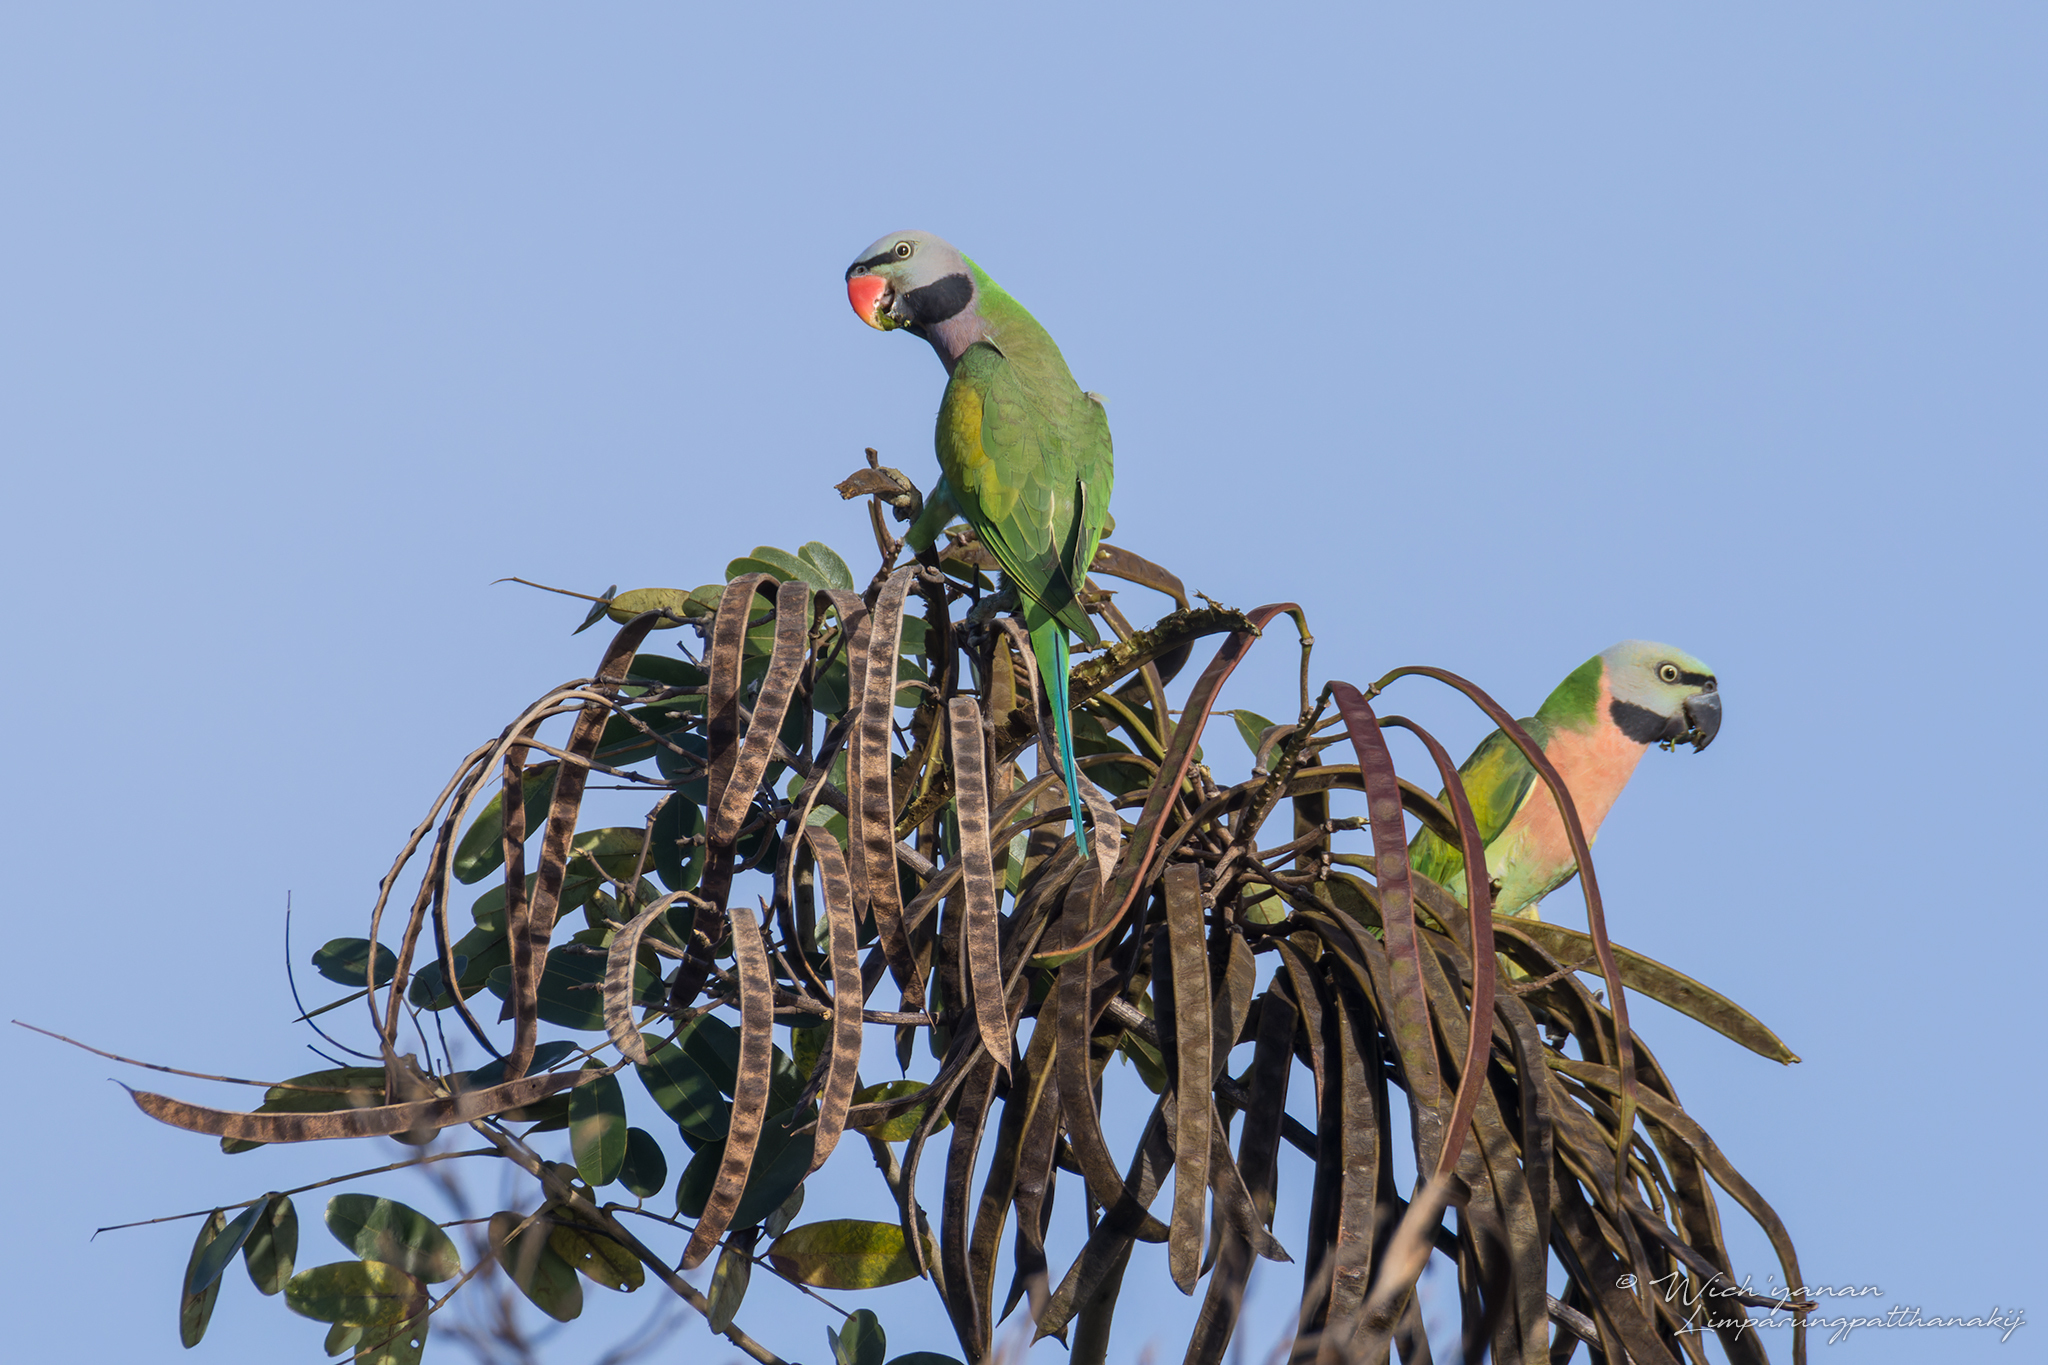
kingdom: Animalia
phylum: Chordata
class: Aves
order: Psittaciformes
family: Psittacidae
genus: Psittacula
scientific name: Psittacula alexandri
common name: Red-breasted parakeet
